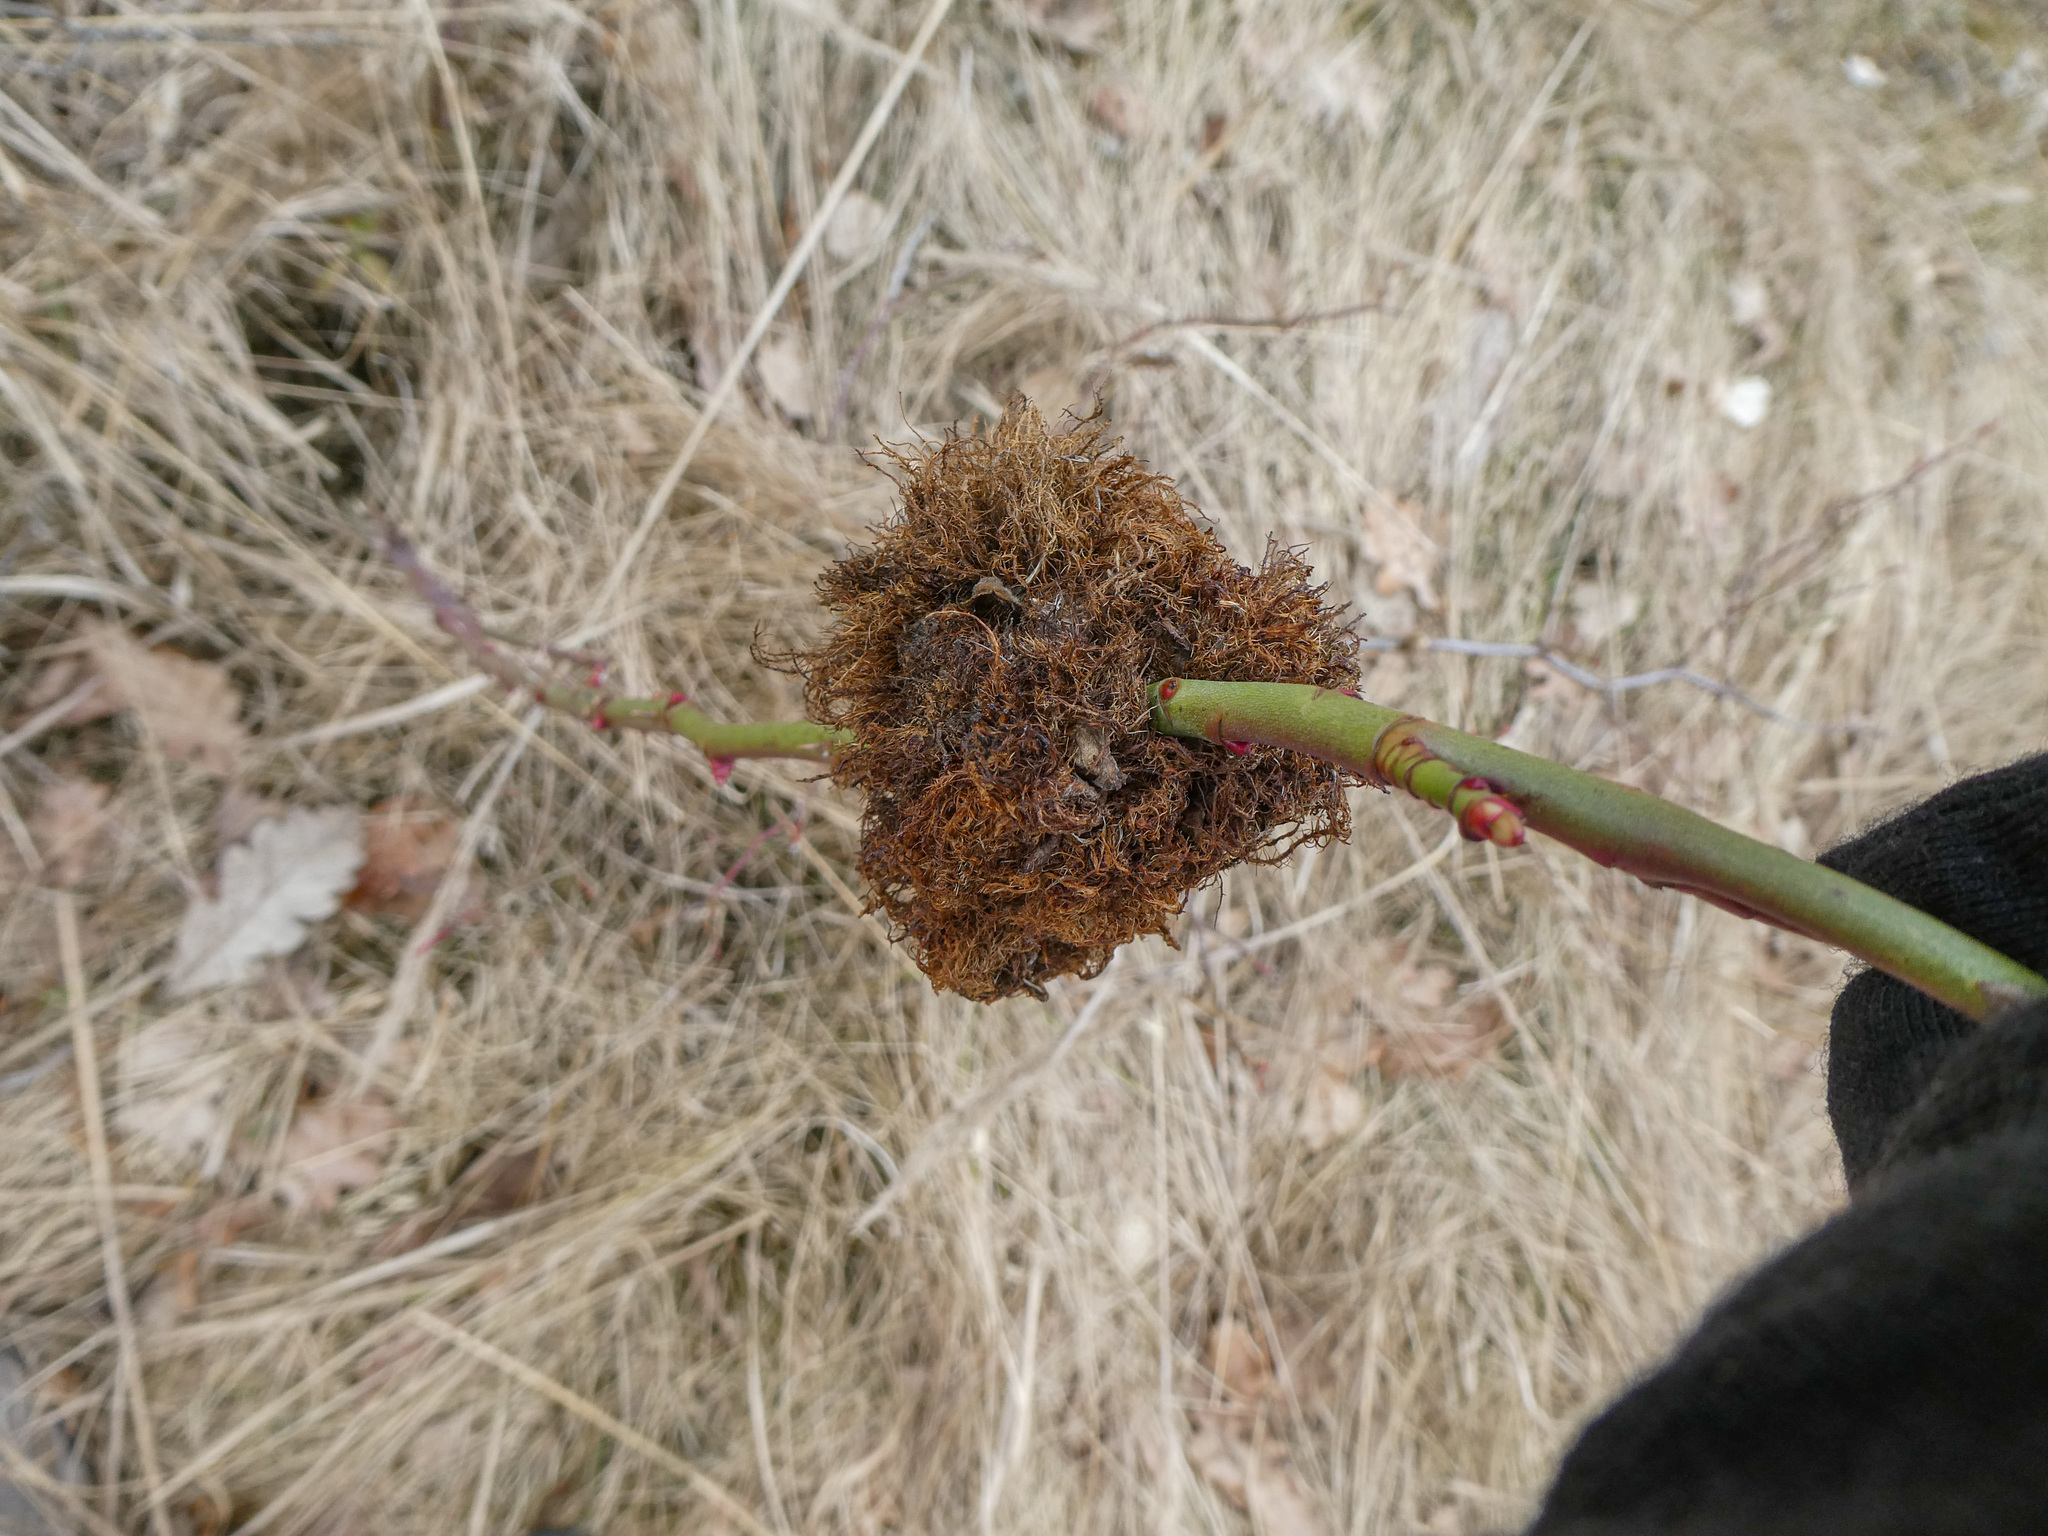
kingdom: Animalia
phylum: Arthropoda
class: Insecta
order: Hymenoptera
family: Cynipidae
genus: Diplolepis
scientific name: Diplolepis rosae
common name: Bedeguar gall
